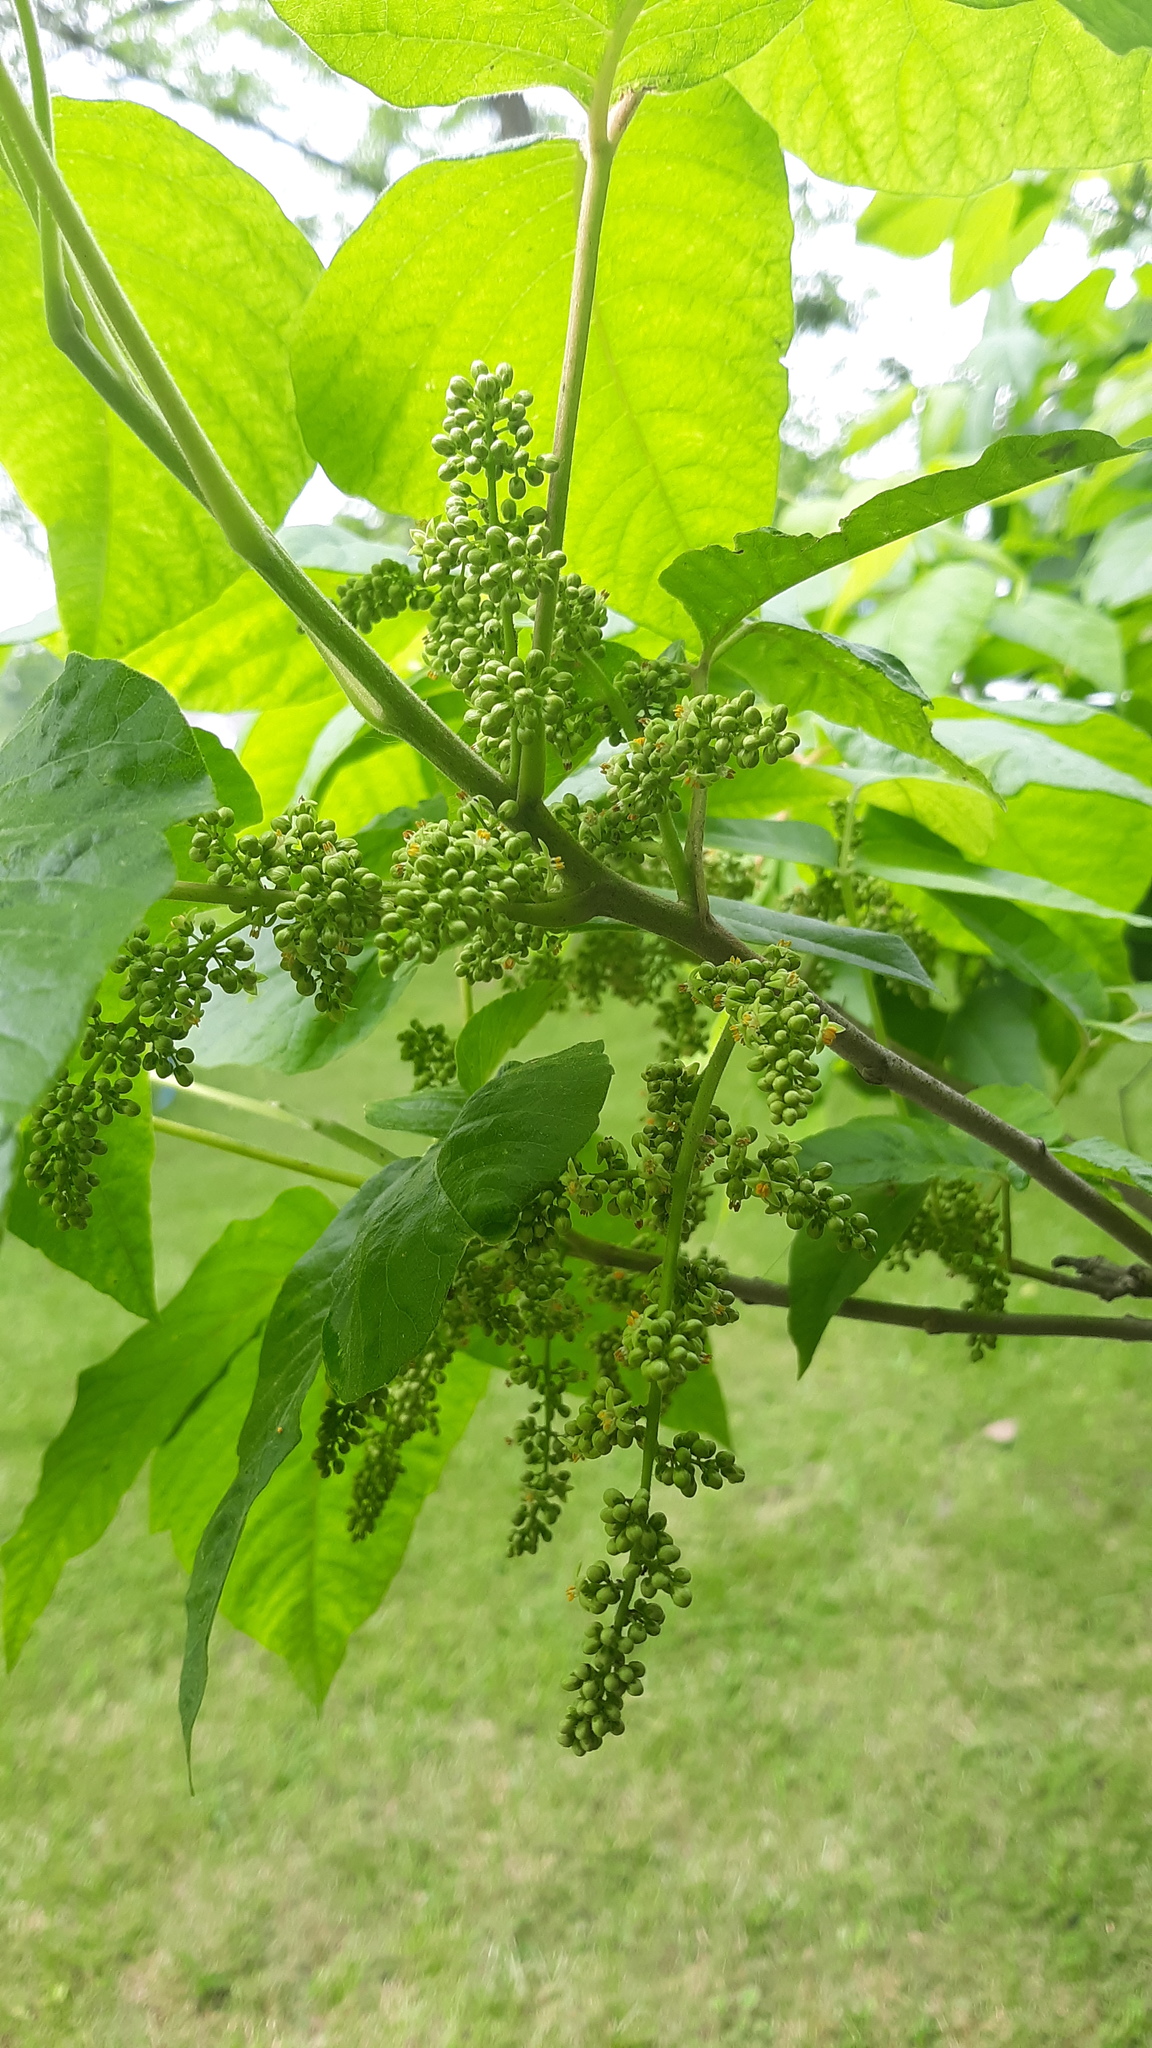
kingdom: Plantae
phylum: Tracheophyta
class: Magnoliopsida
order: Sapindales
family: Anacardiaceae
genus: Toxicodendron
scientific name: Toxicodendron radicans
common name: Poison ivy
